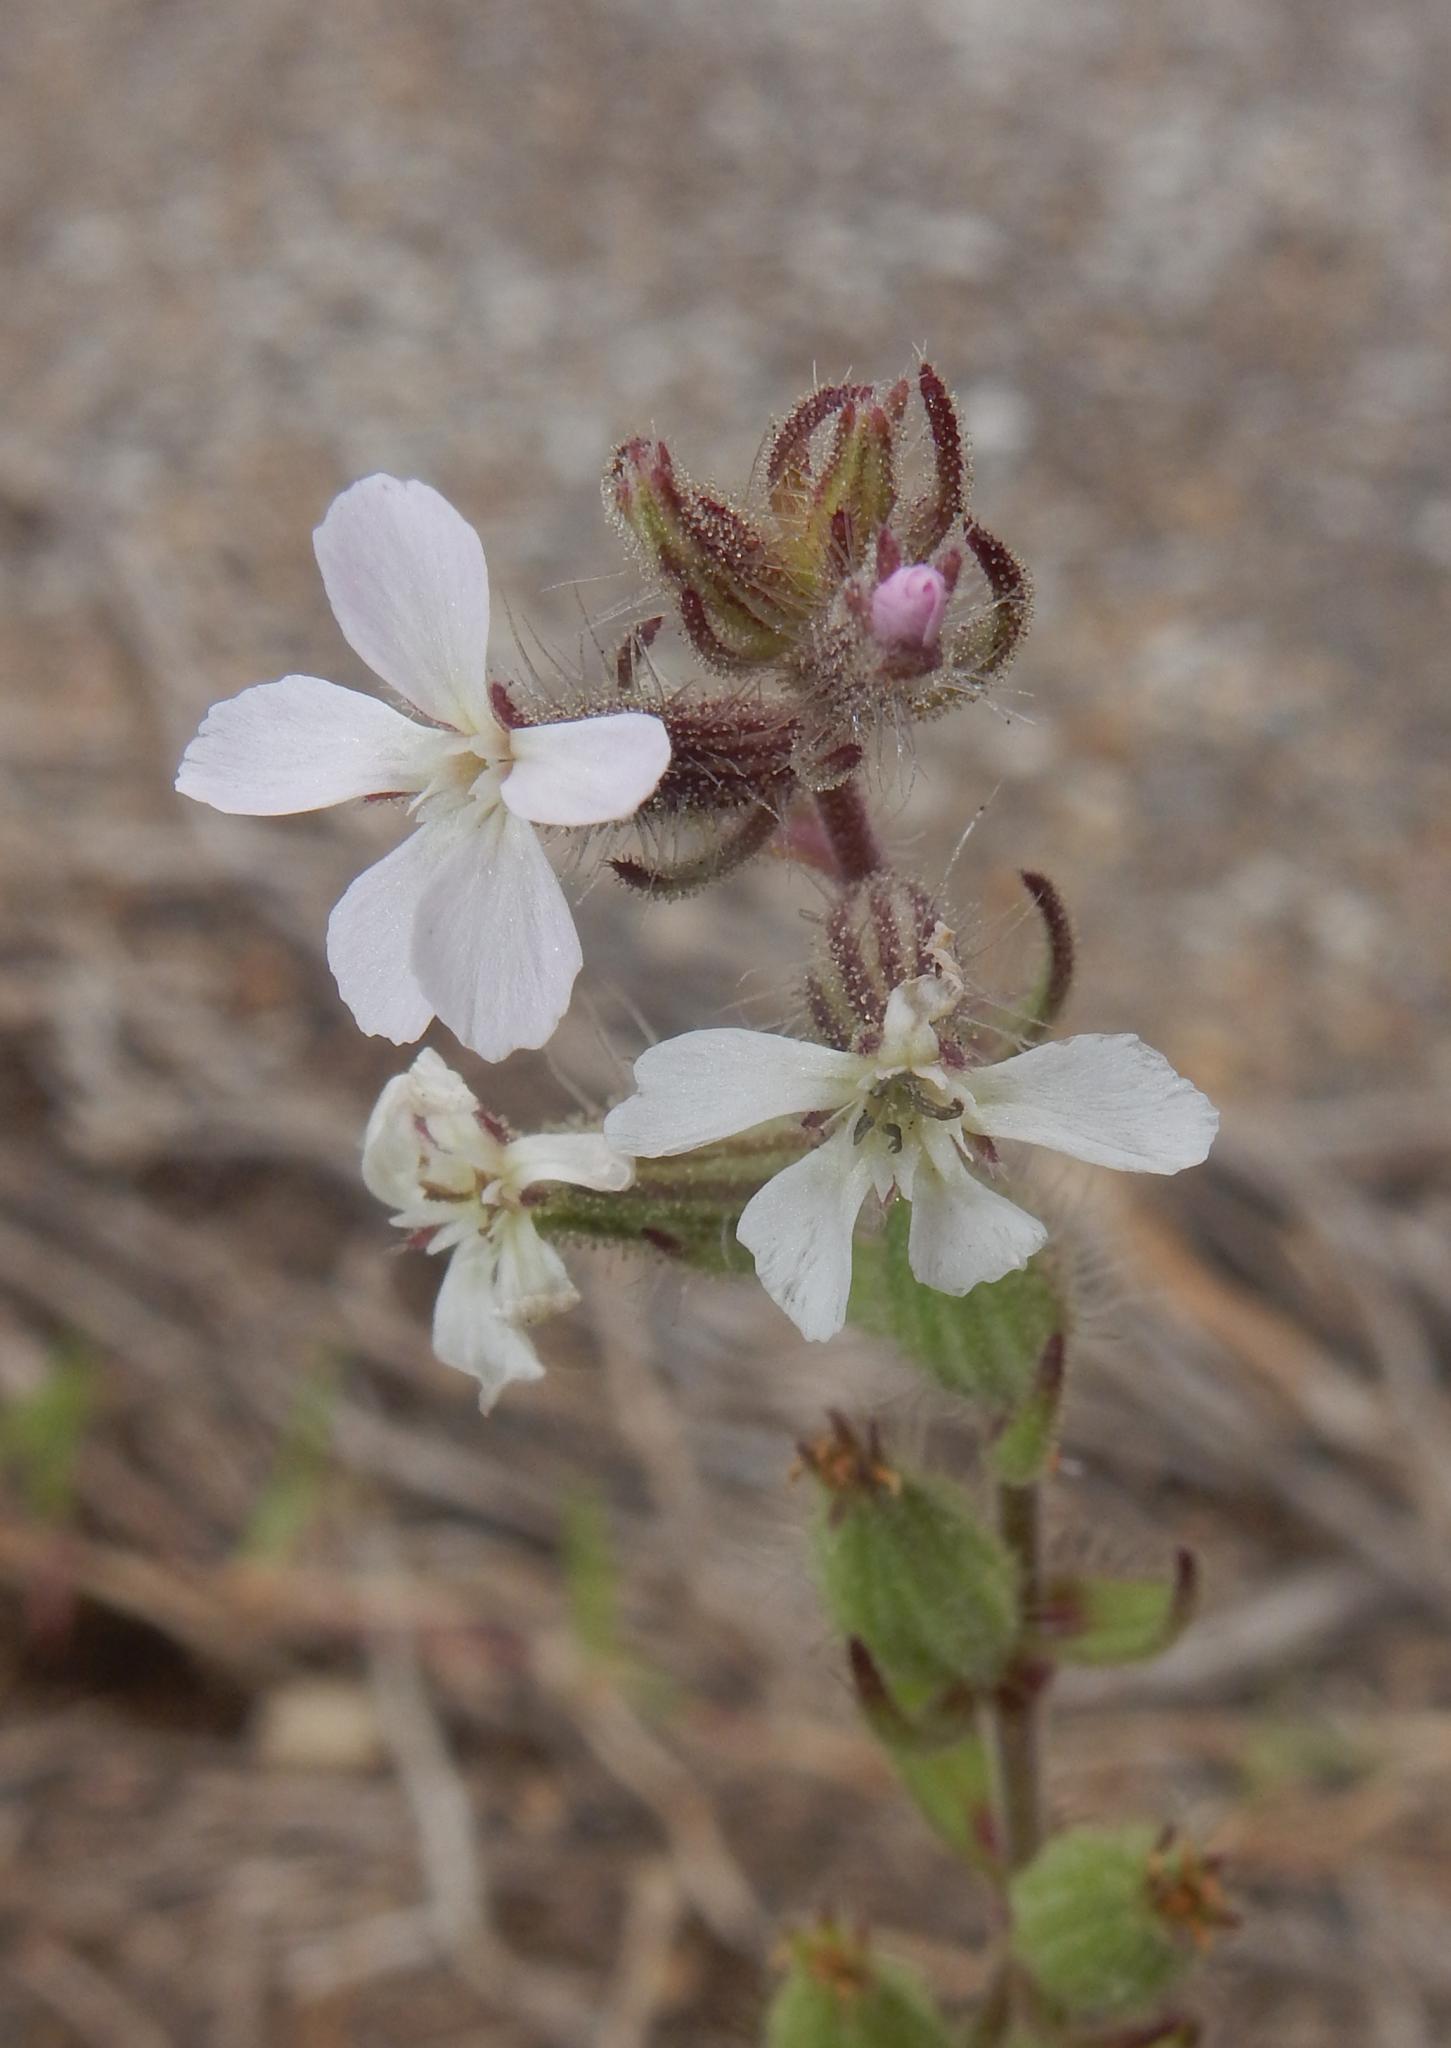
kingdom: Plantae
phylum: Tracheophyta
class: Magnoliopsida
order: Caryophyllales
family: Caryophyllaceae
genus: Silene
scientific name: Silene gallica
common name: Small-flowered catchfly
